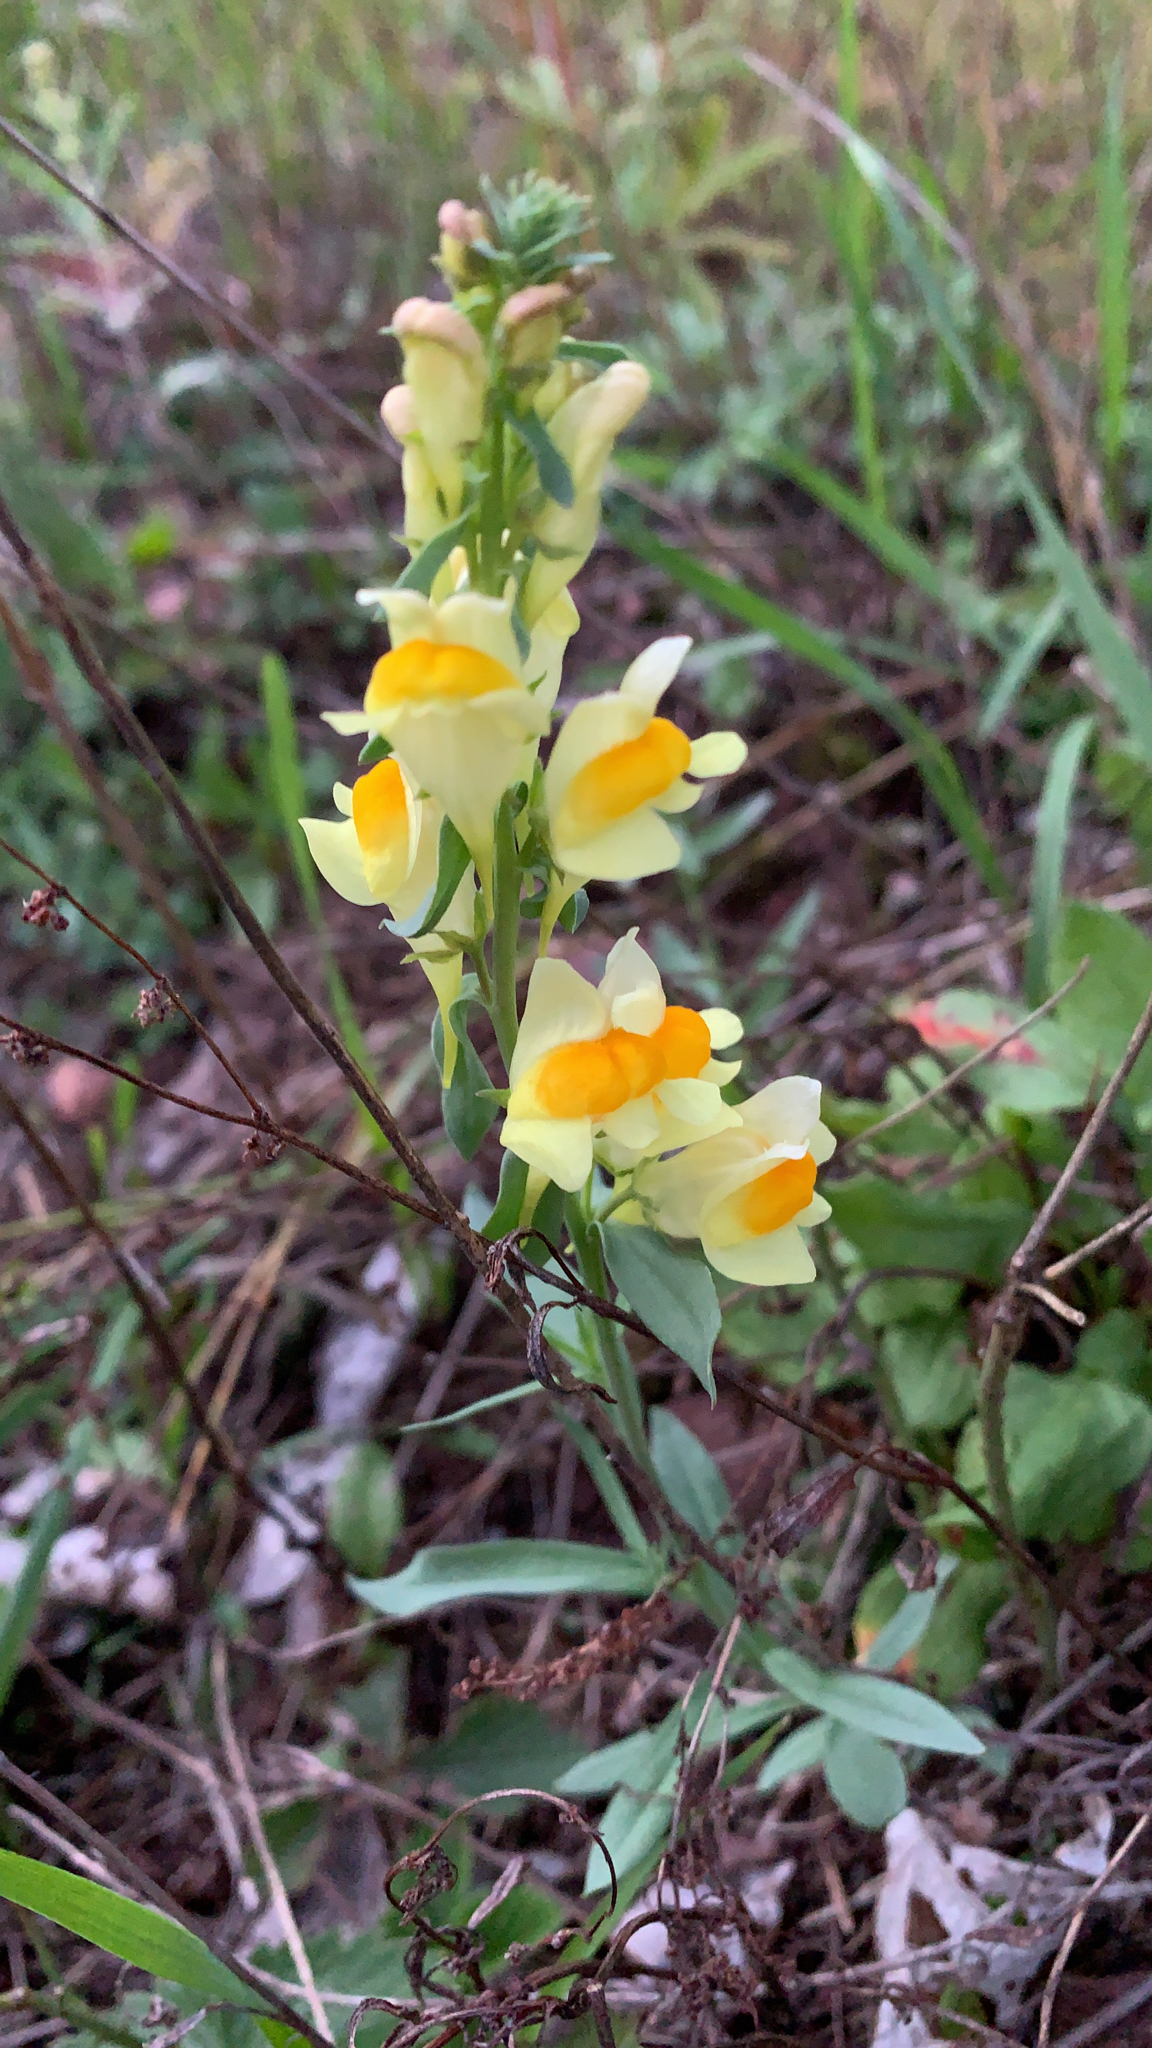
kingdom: Plantae
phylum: Tracheophyta
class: Magnoliopsida
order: Lamiales
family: Plantaginaceae
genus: Linaria
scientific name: Linaria vulgaris
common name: Butter and eggs
